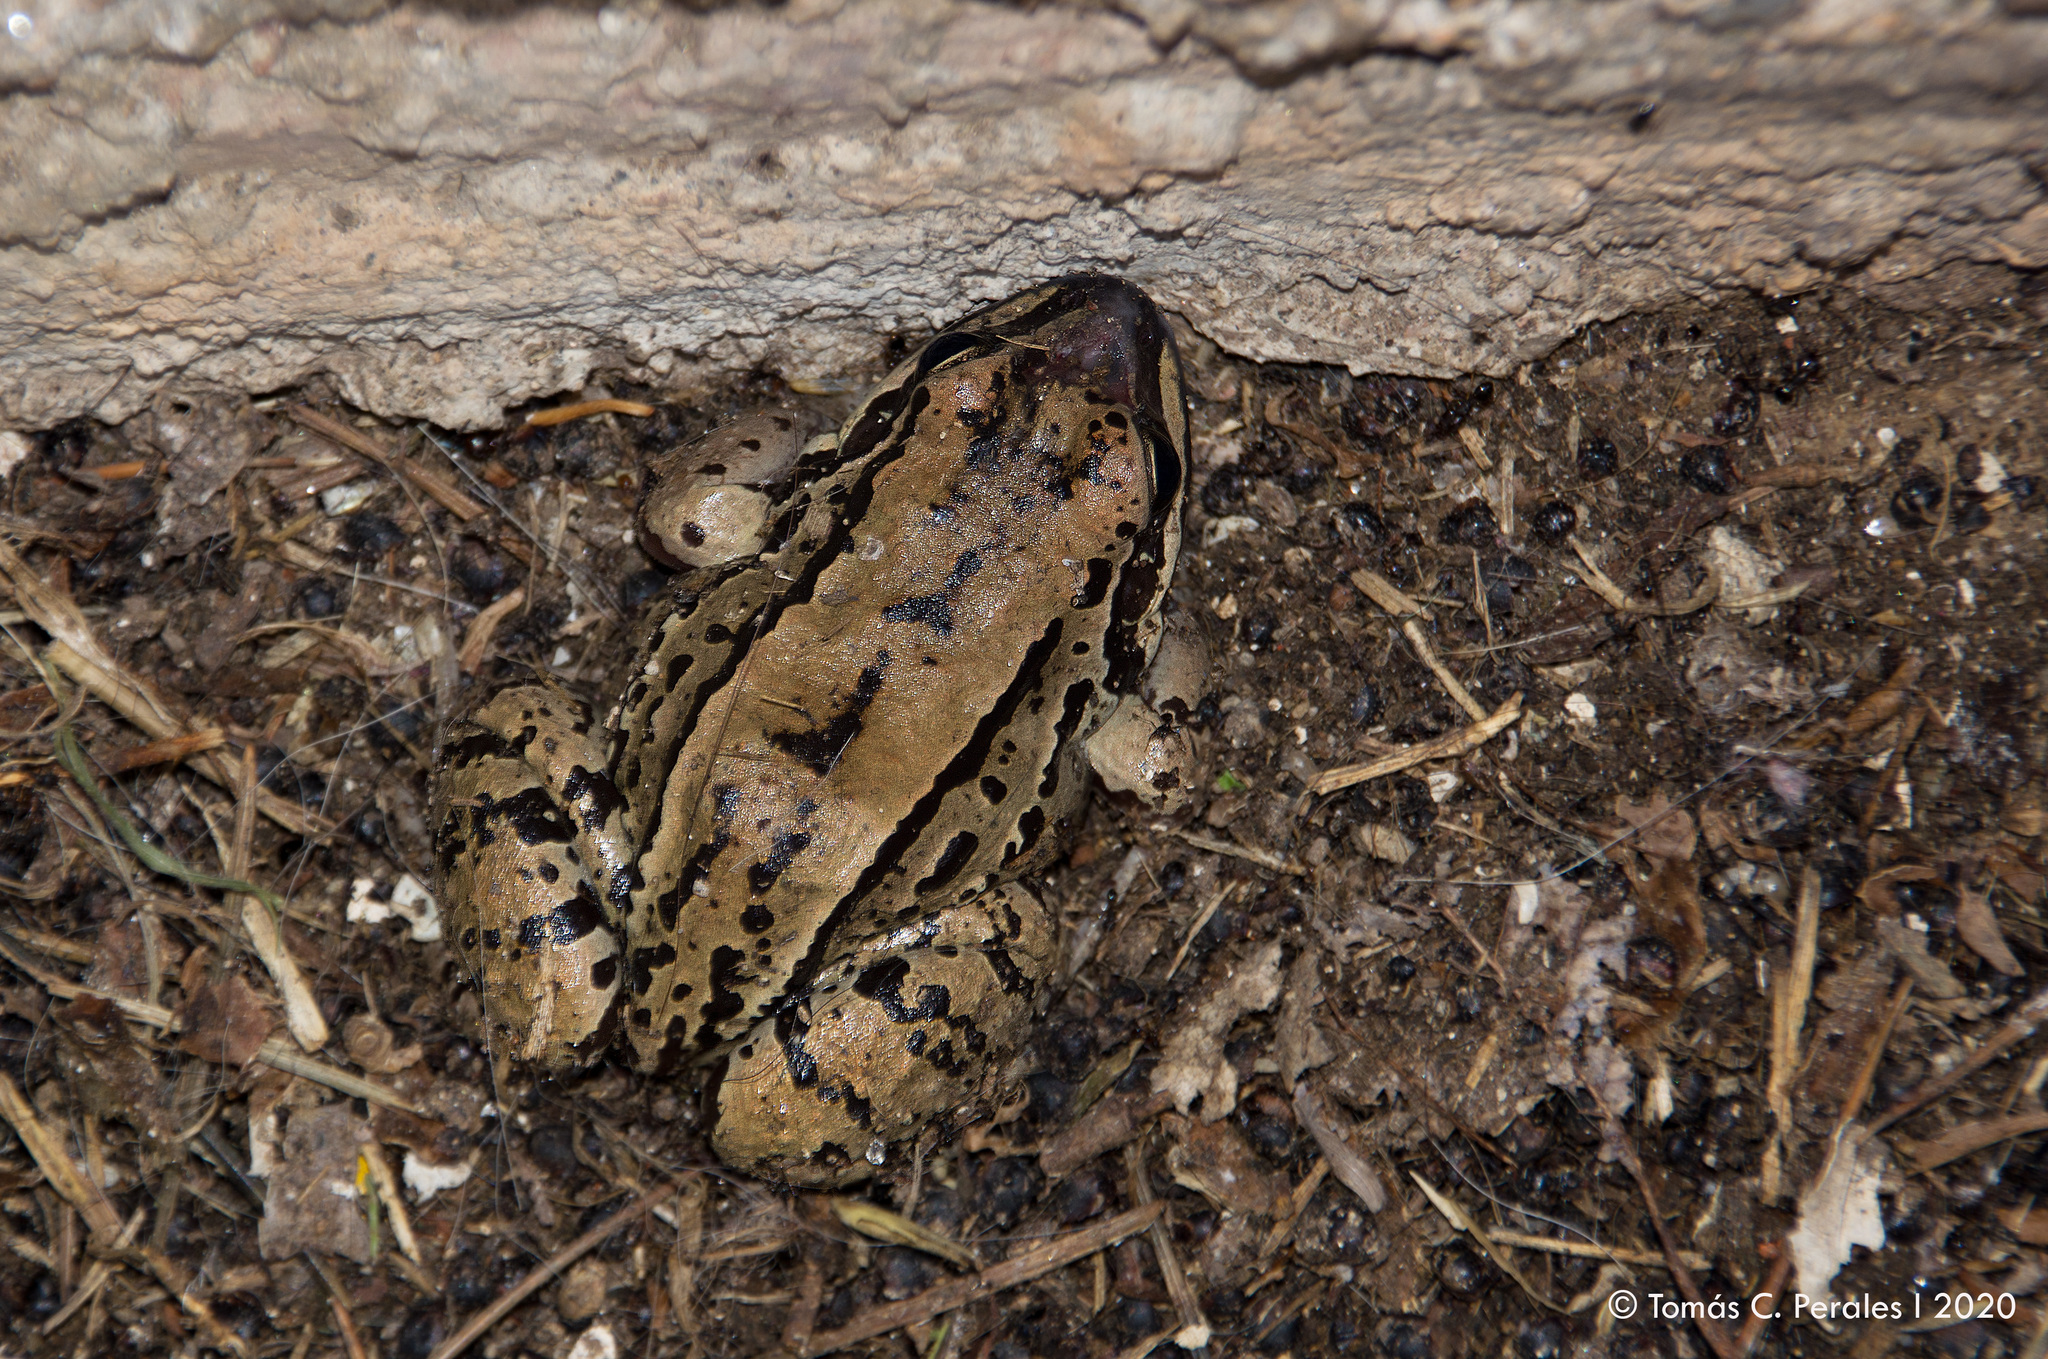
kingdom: Animalia
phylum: Chordata
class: Amphibia
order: Anura
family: Leptodactylidae
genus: Leptodactylus
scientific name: Leptodactylus mystacinus
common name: Moustached frog
